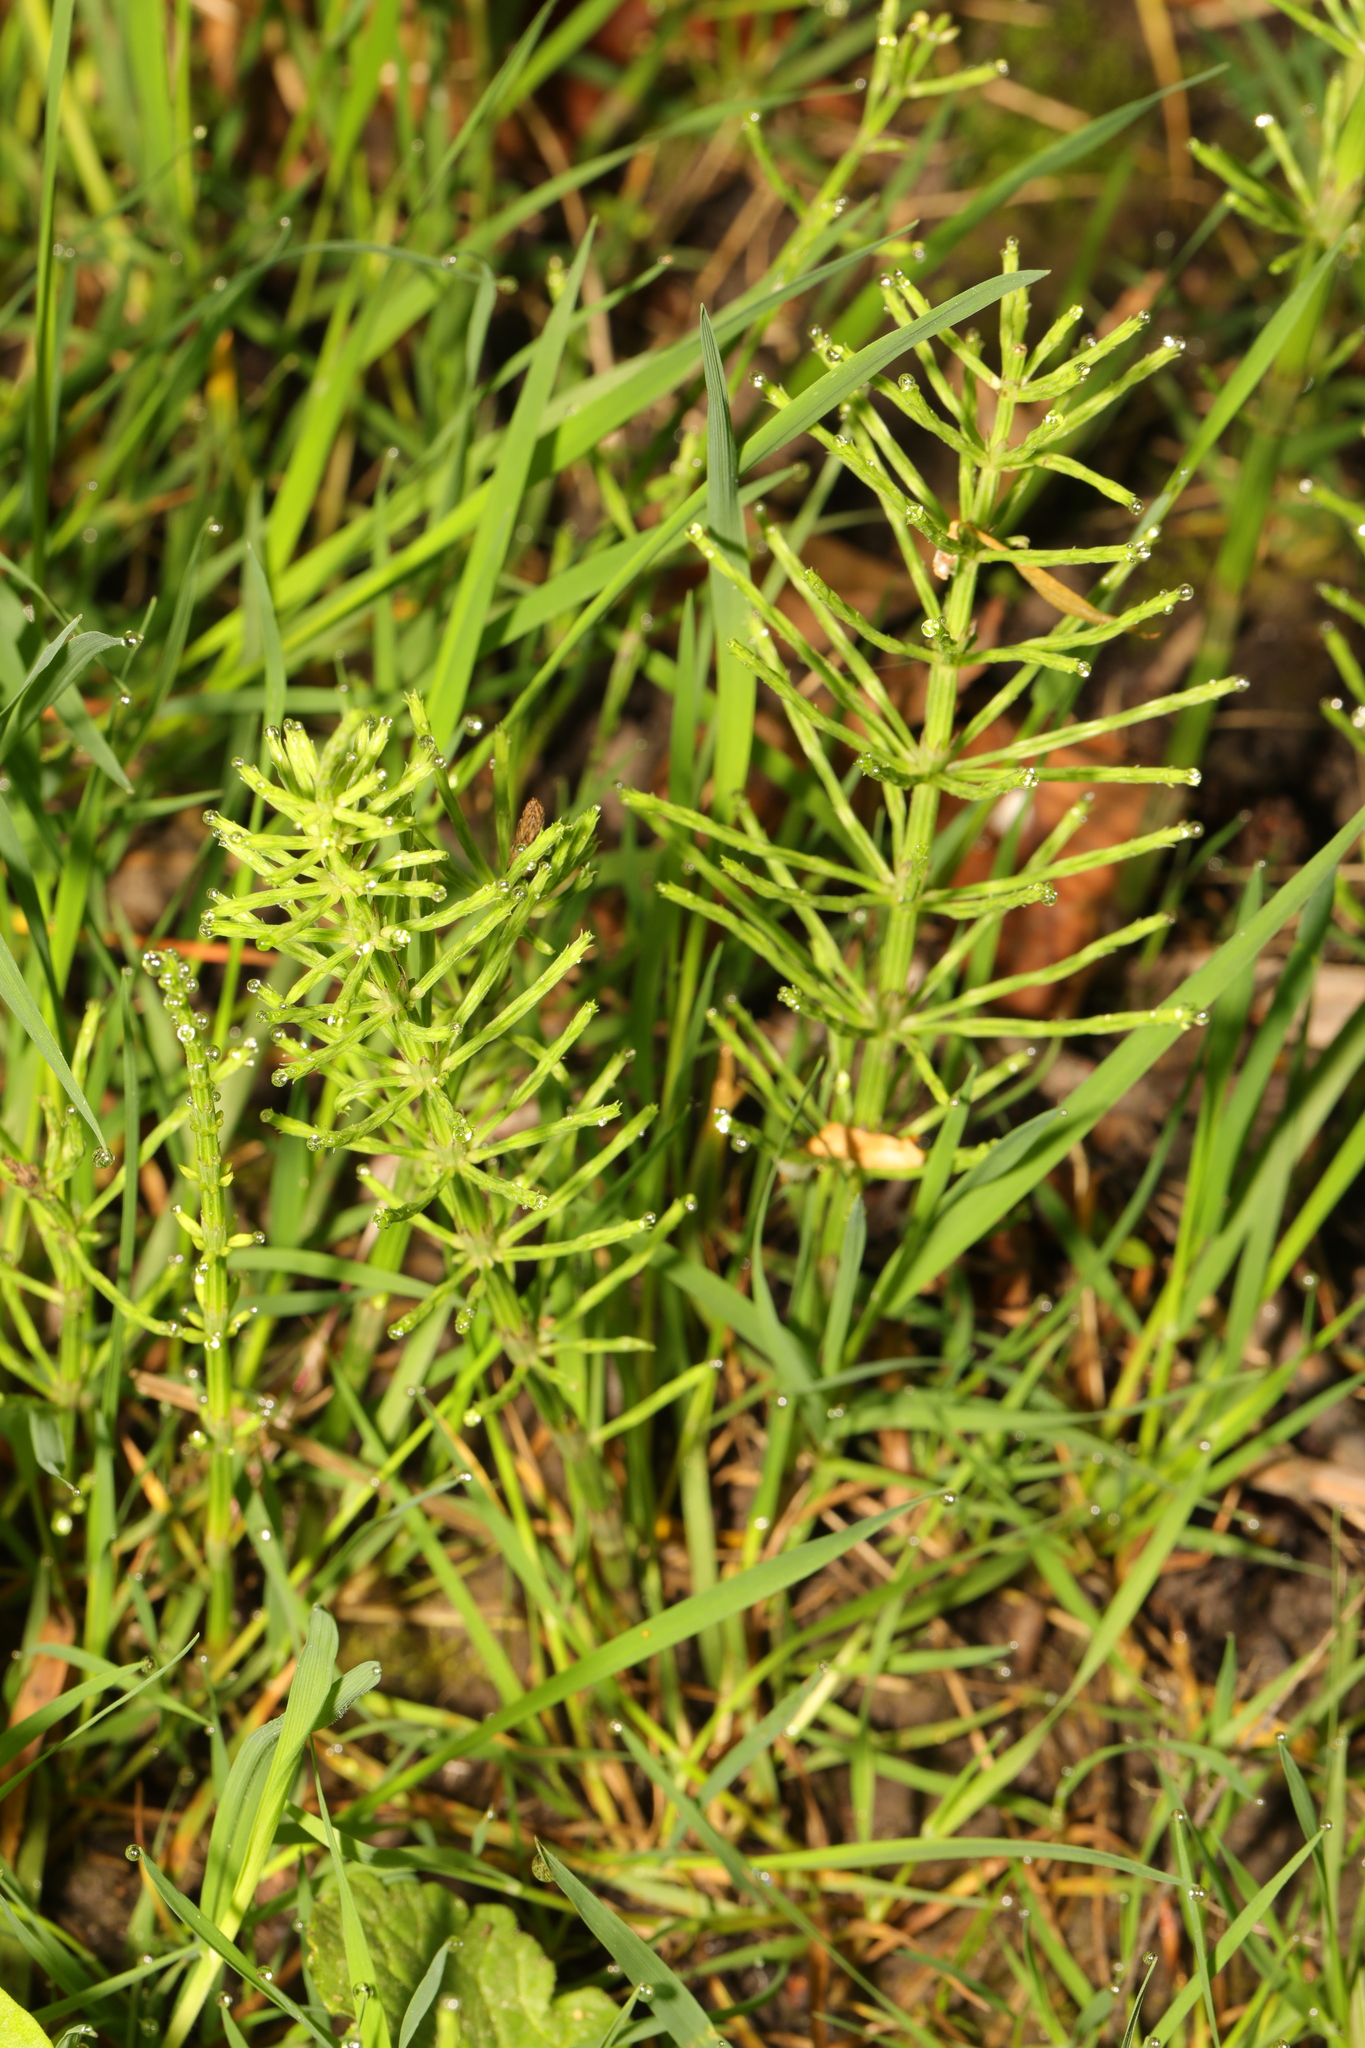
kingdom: Plantae
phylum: Tracheophyta
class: Polypodiopsida
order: Equisetales
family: Equisetaceae
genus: Equisetum
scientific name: Equisetum arvense
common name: Field horsetail
